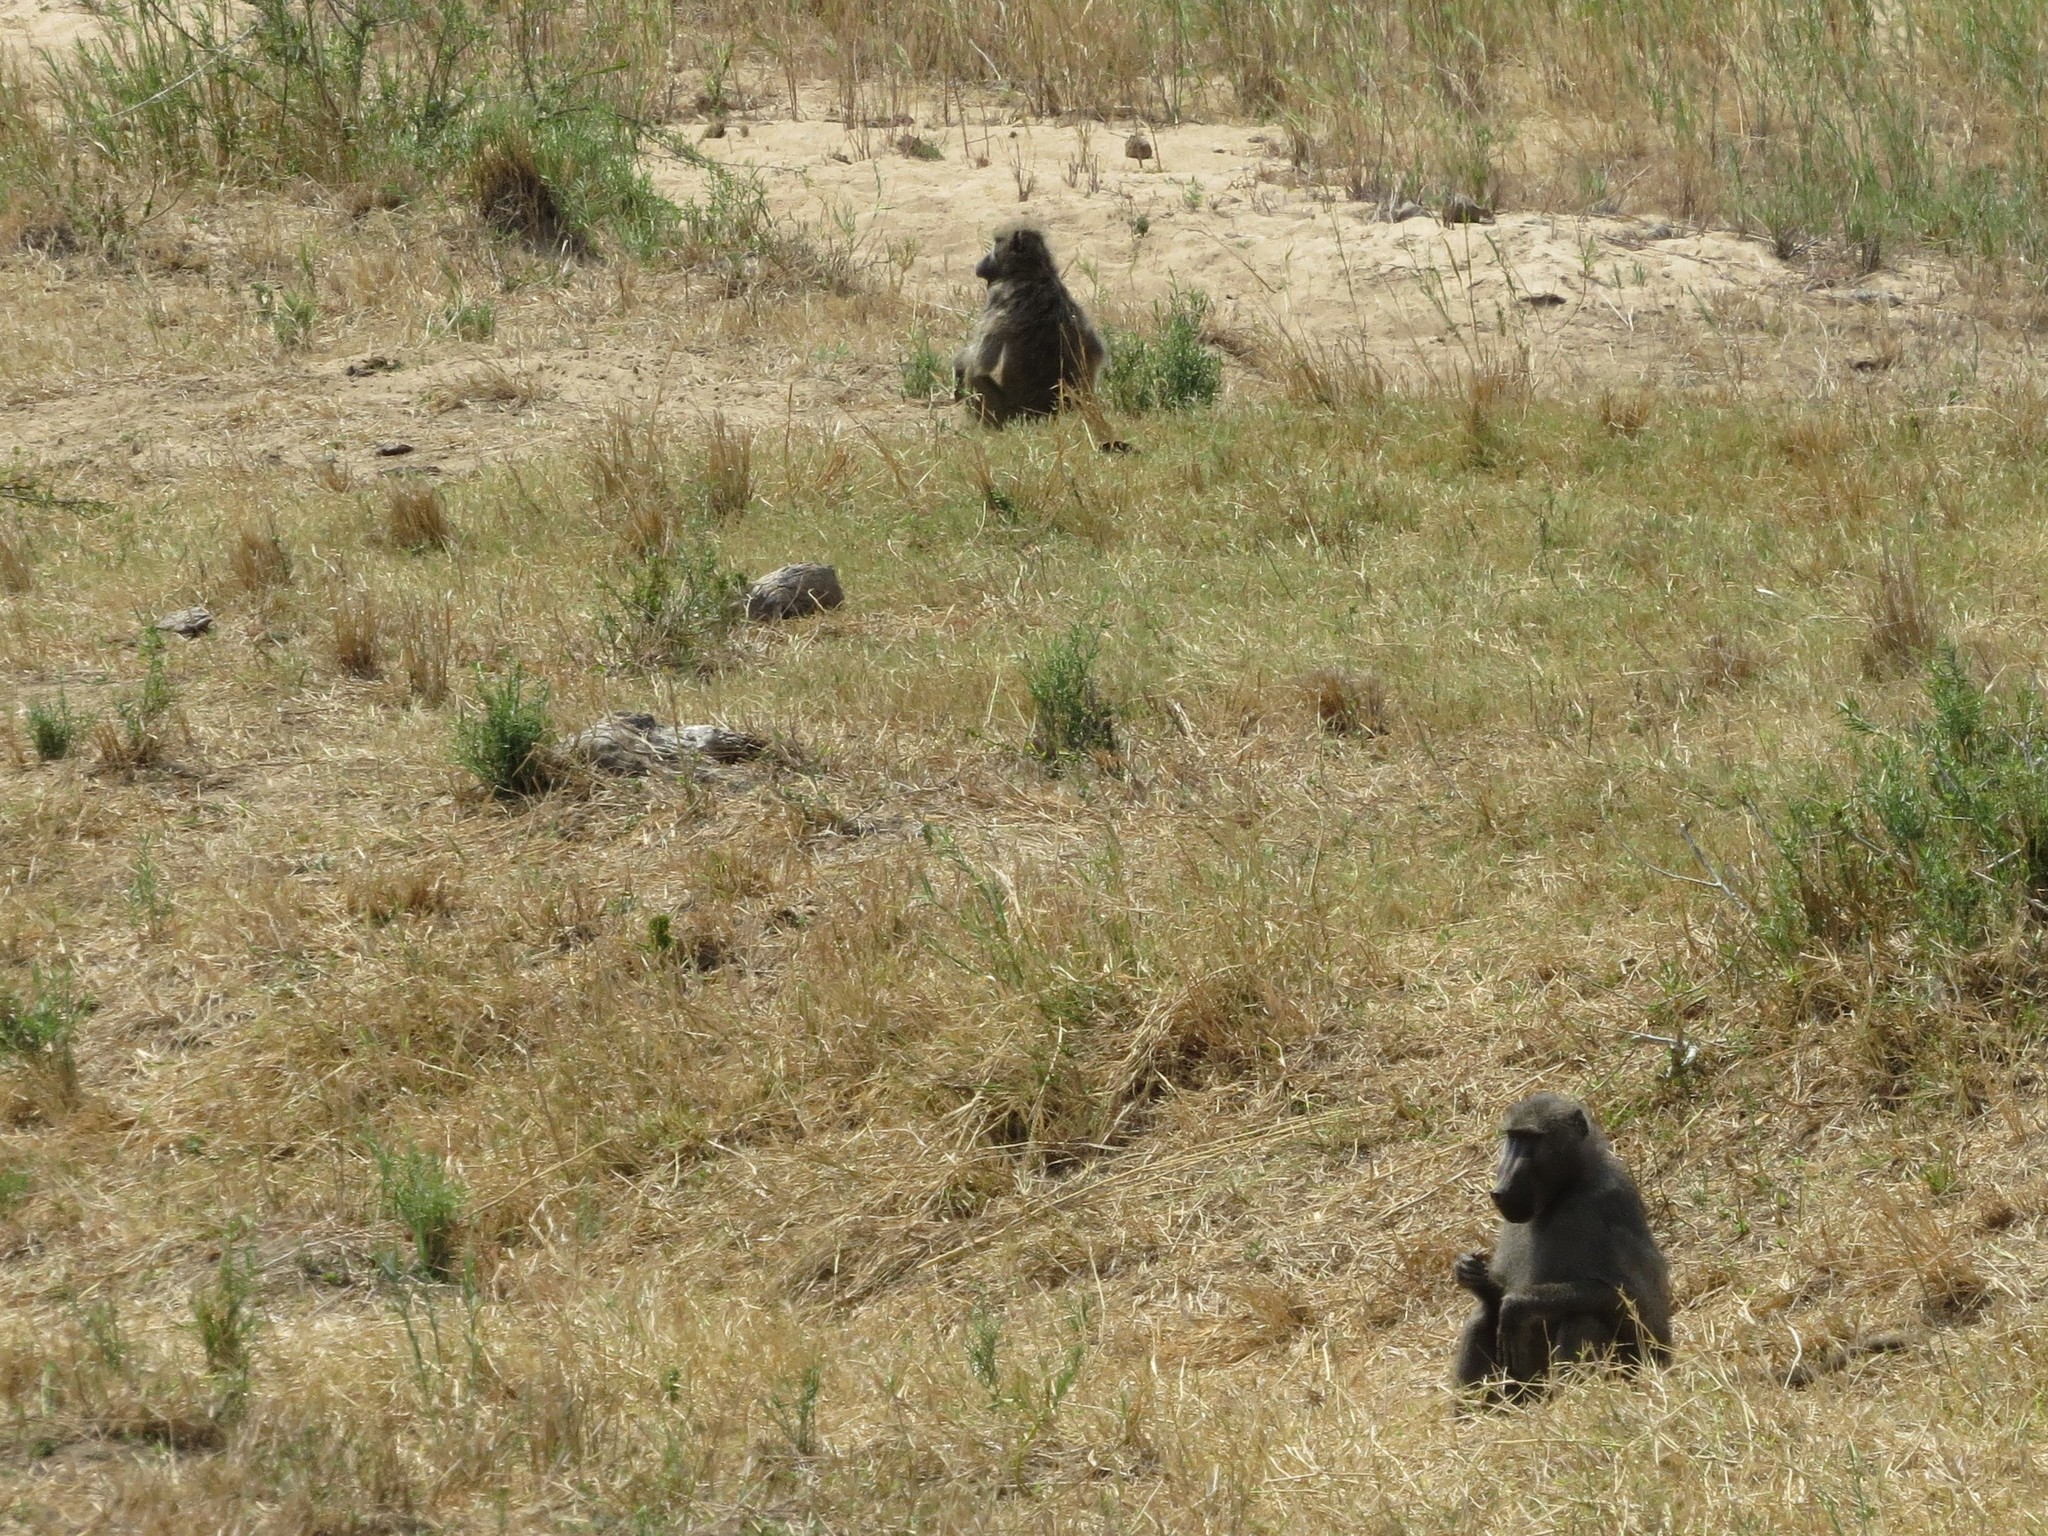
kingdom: Animalia
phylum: Chordata
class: Mammalia
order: Primates
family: Cercopithecidae
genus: Papio
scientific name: Papio ursinus
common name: Chacma baboon
